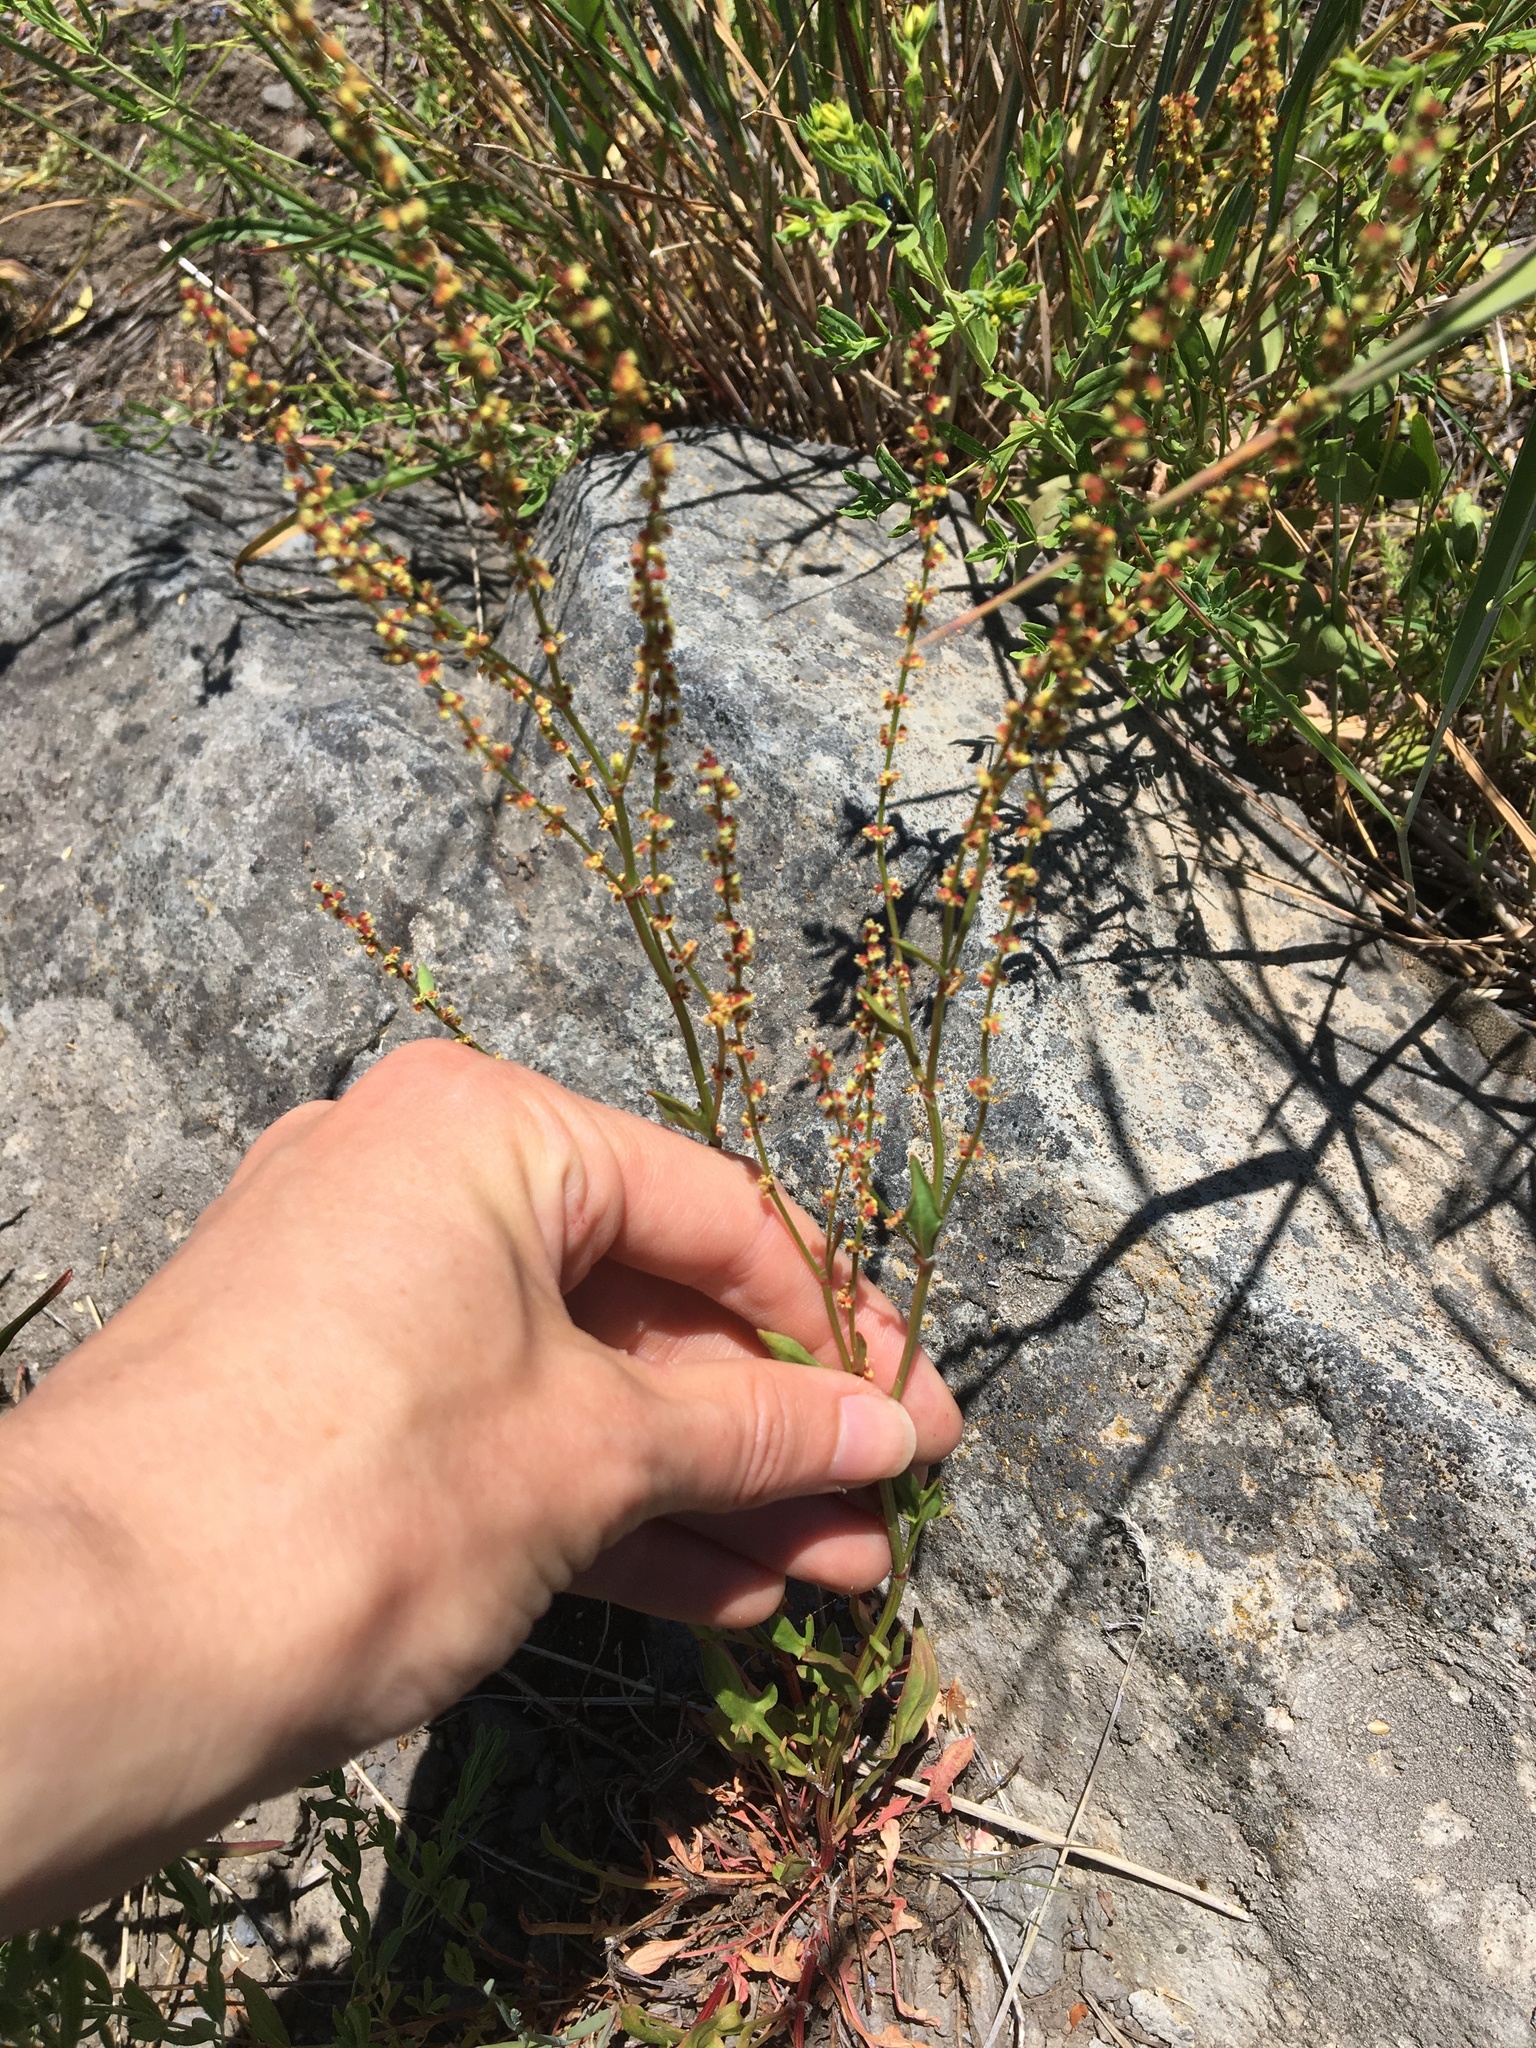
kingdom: Plantae
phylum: Tracheophyta
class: Magnoliopsida
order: Caryophyllales
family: Polygonaceae
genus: Rumex
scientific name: Rumex acetosella
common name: Common sheep sorrel
